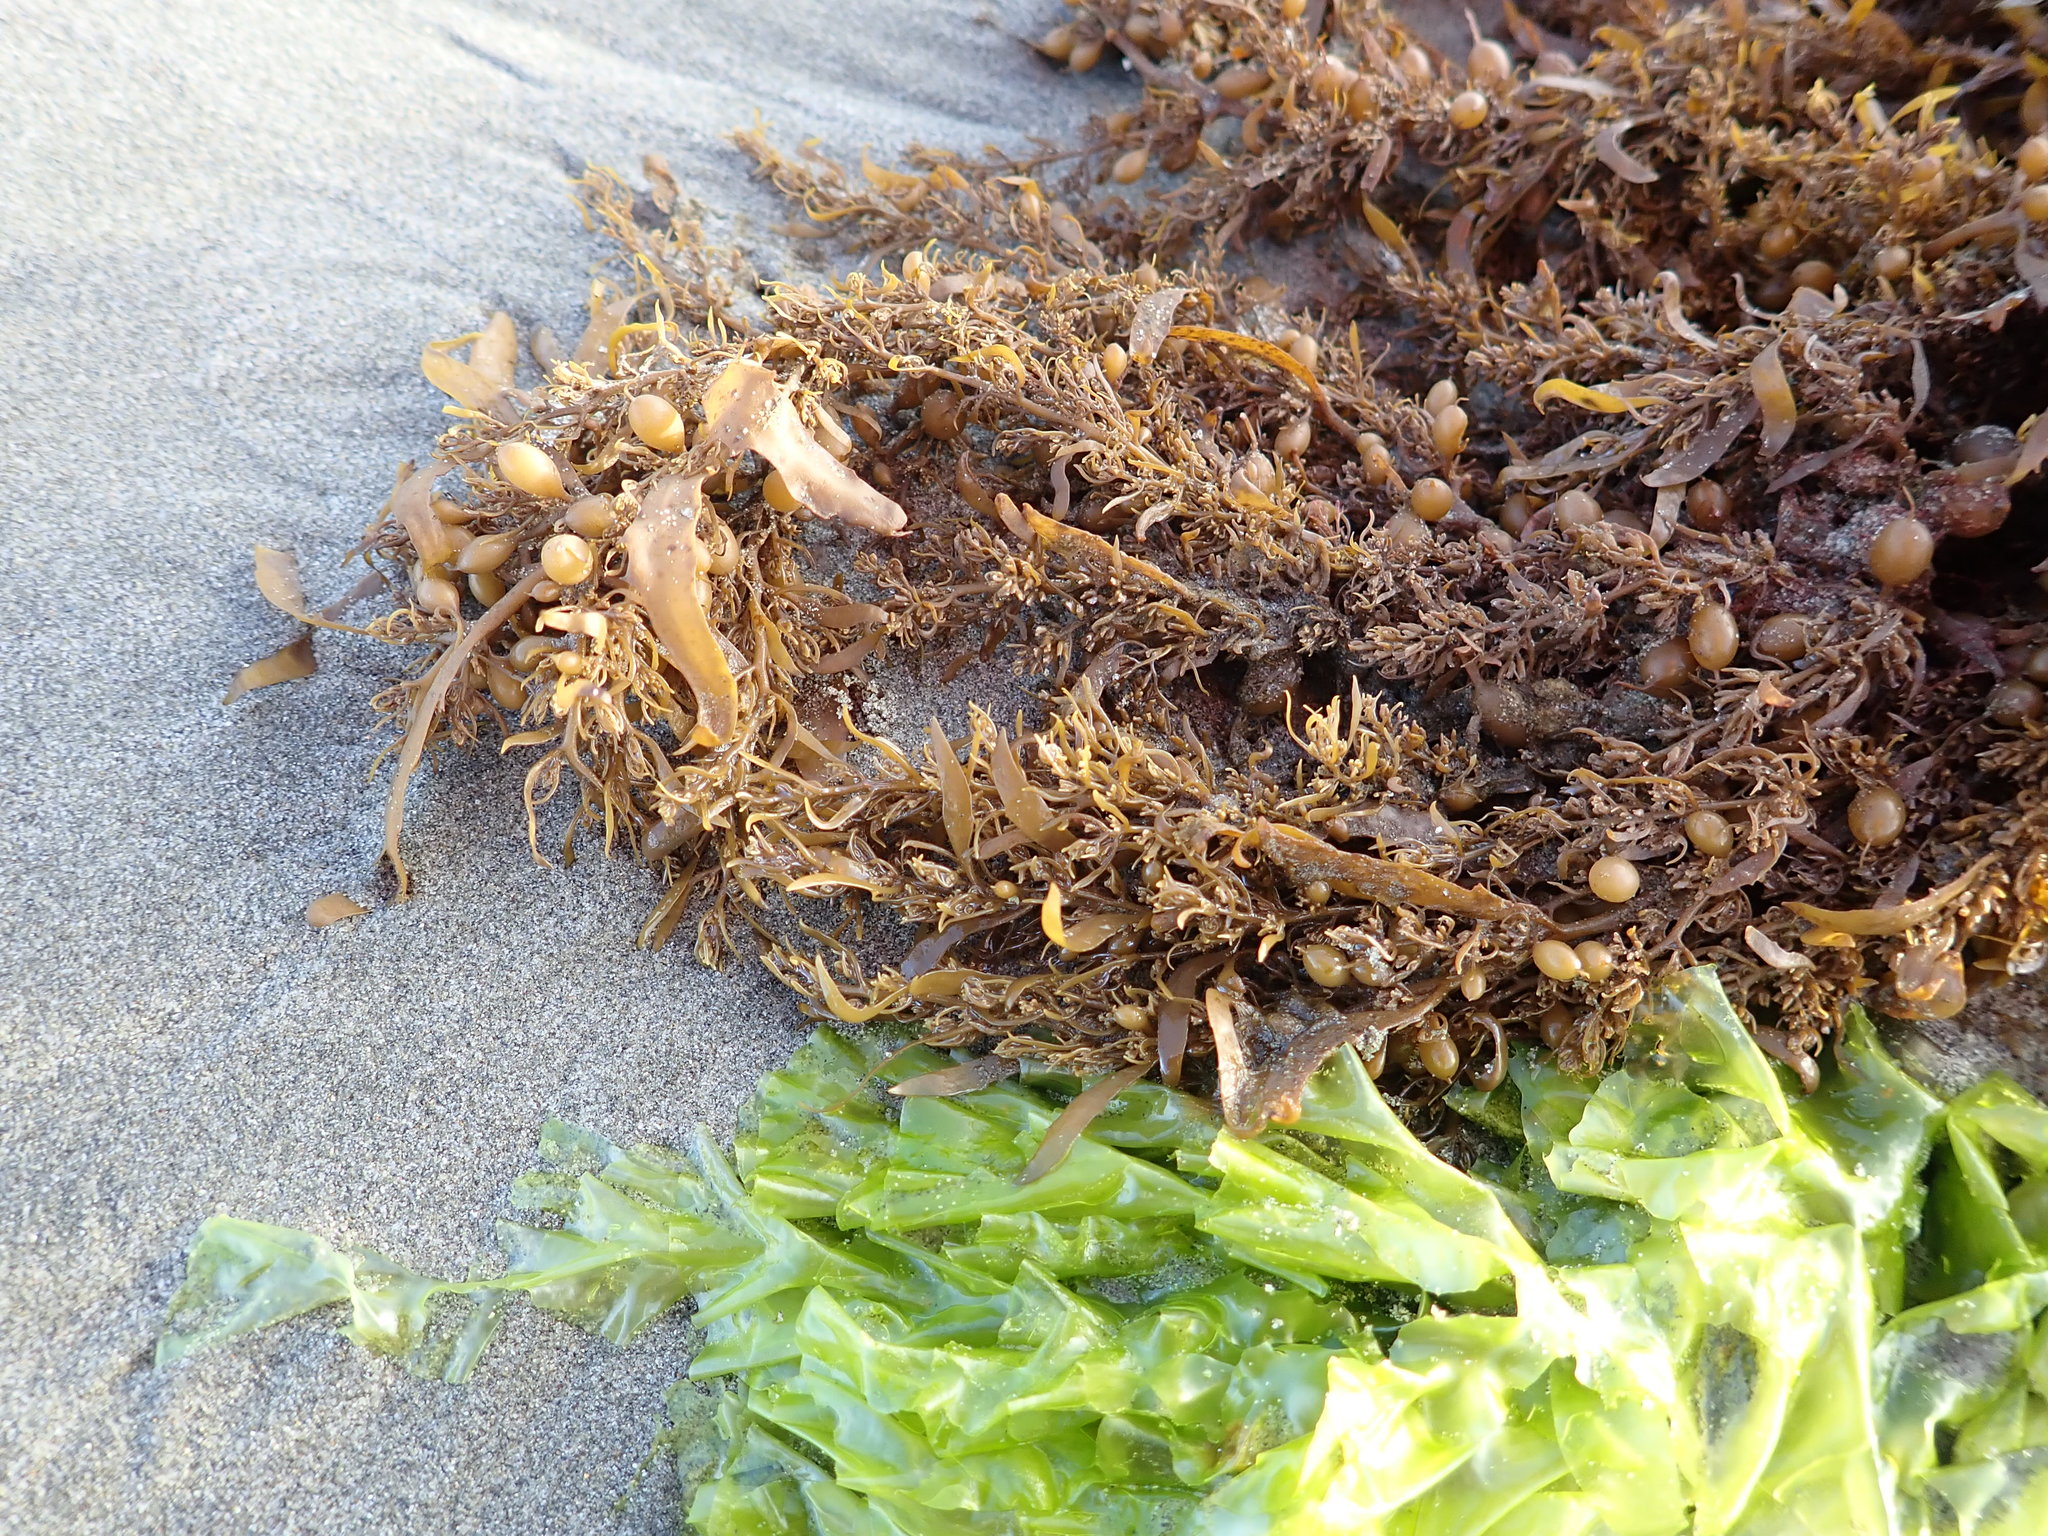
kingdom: Chromista
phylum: Ochrophyta
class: Phaeophyceae
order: Fucales
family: Sargassaceae
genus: Sargassum
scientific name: Sargassum sinclairii
